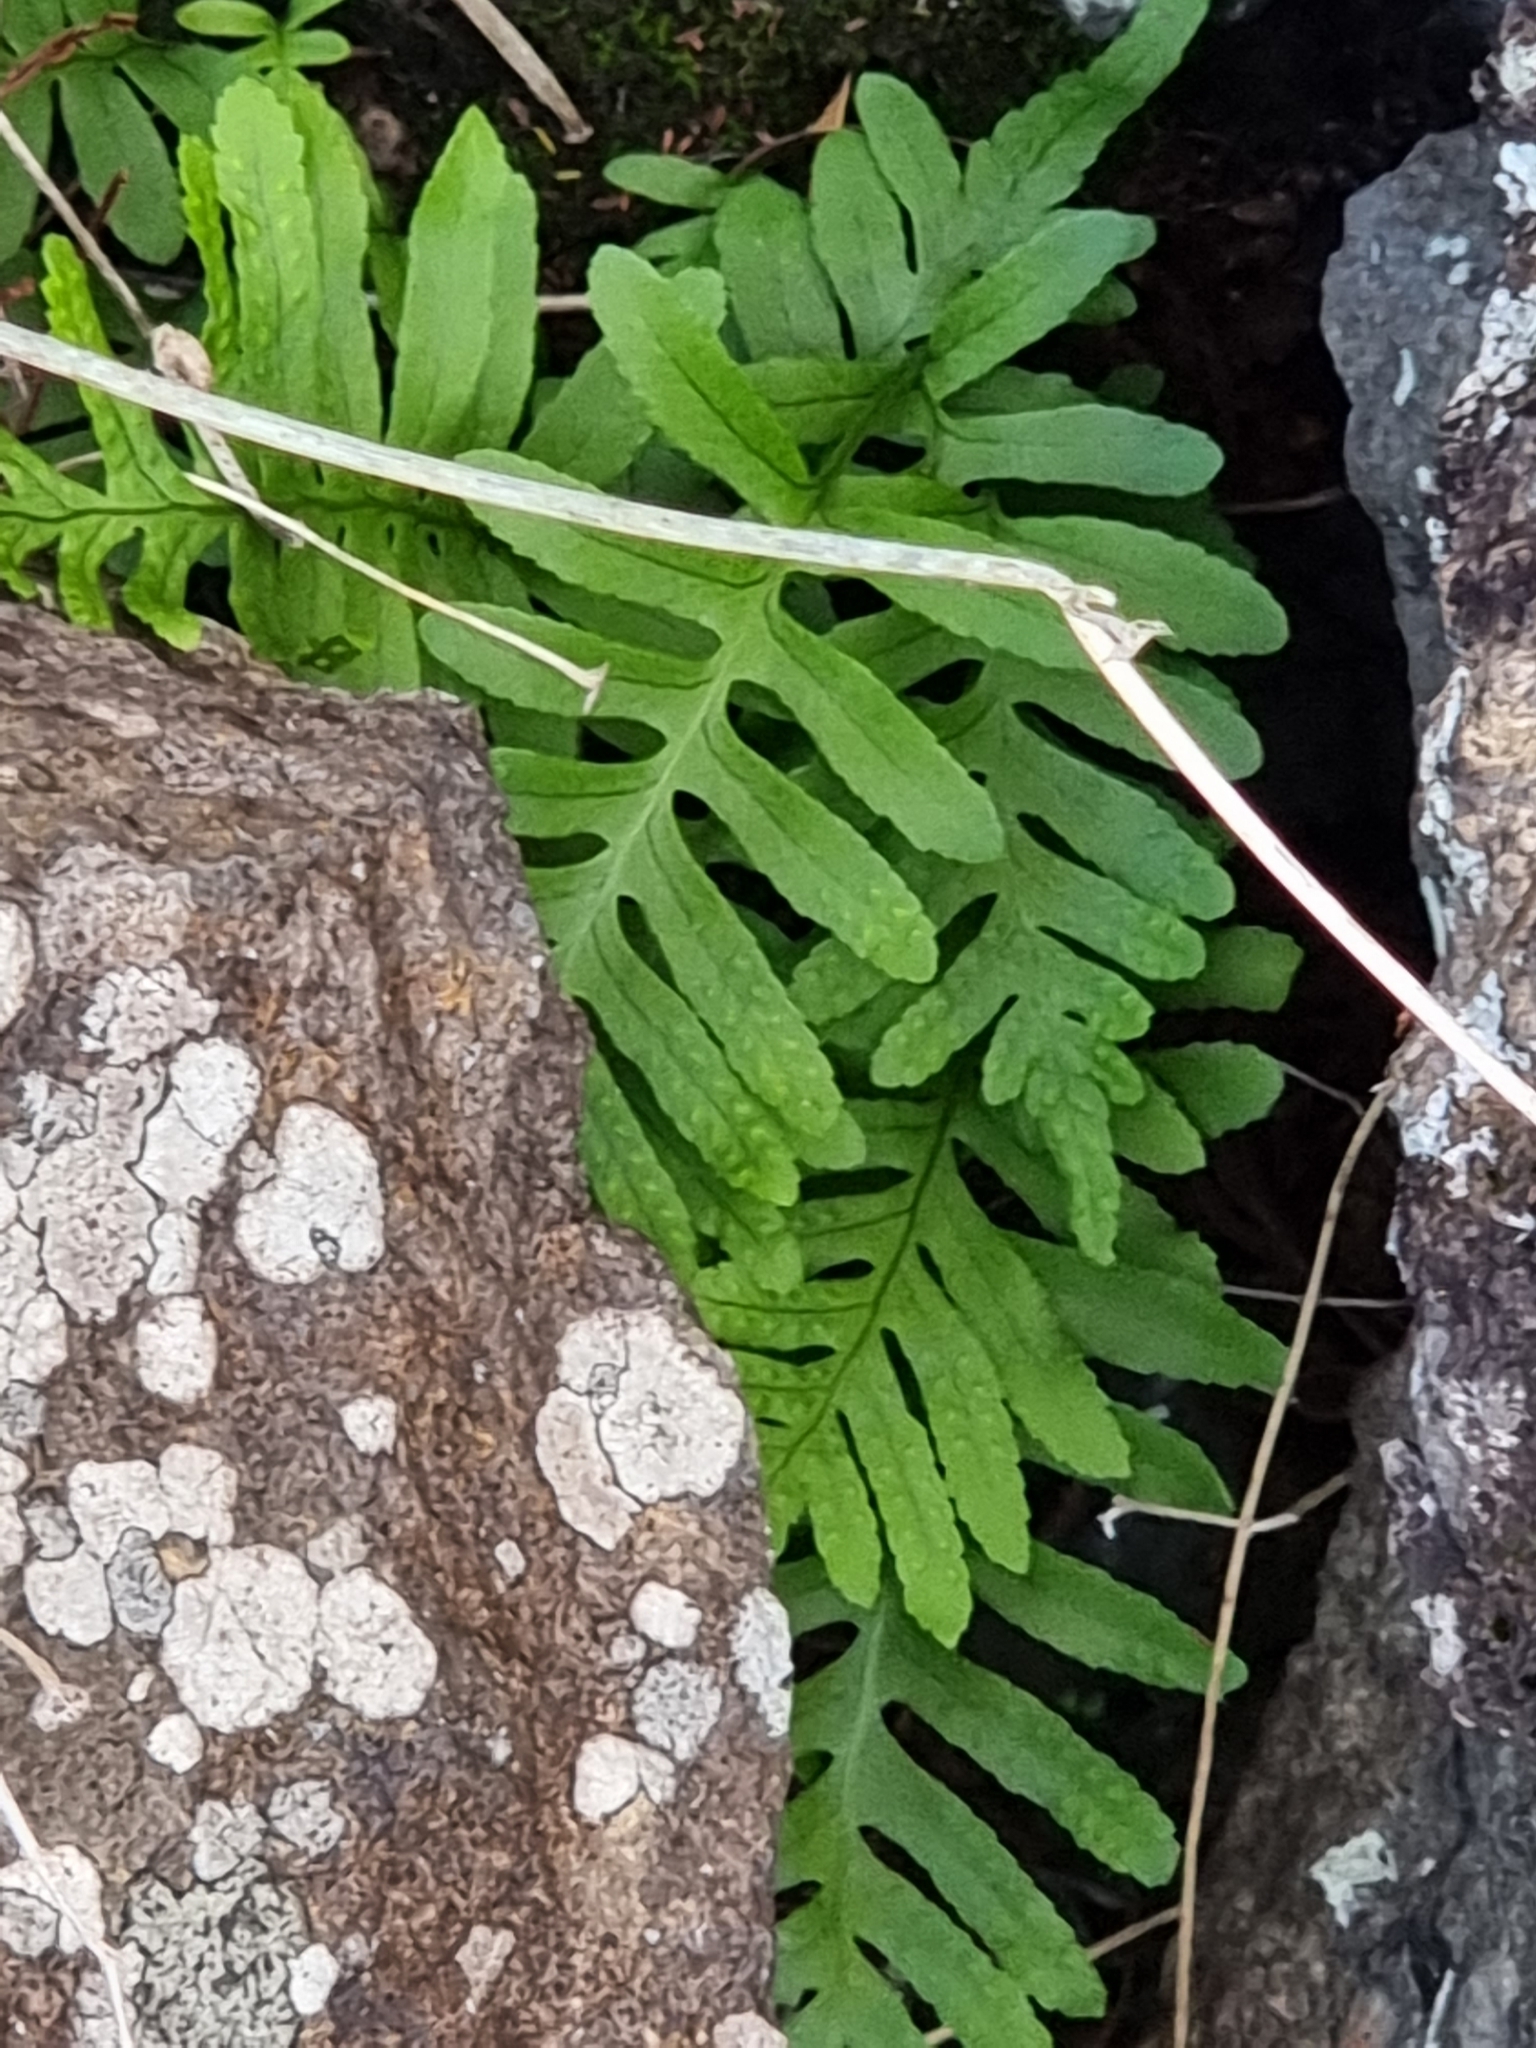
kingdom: Plantae
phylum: Tracheophyta
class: Polypodiopsida
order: Polypodiales
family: Polypodiaceae
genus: Polypodium
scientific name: Polypodium macaronesicum
